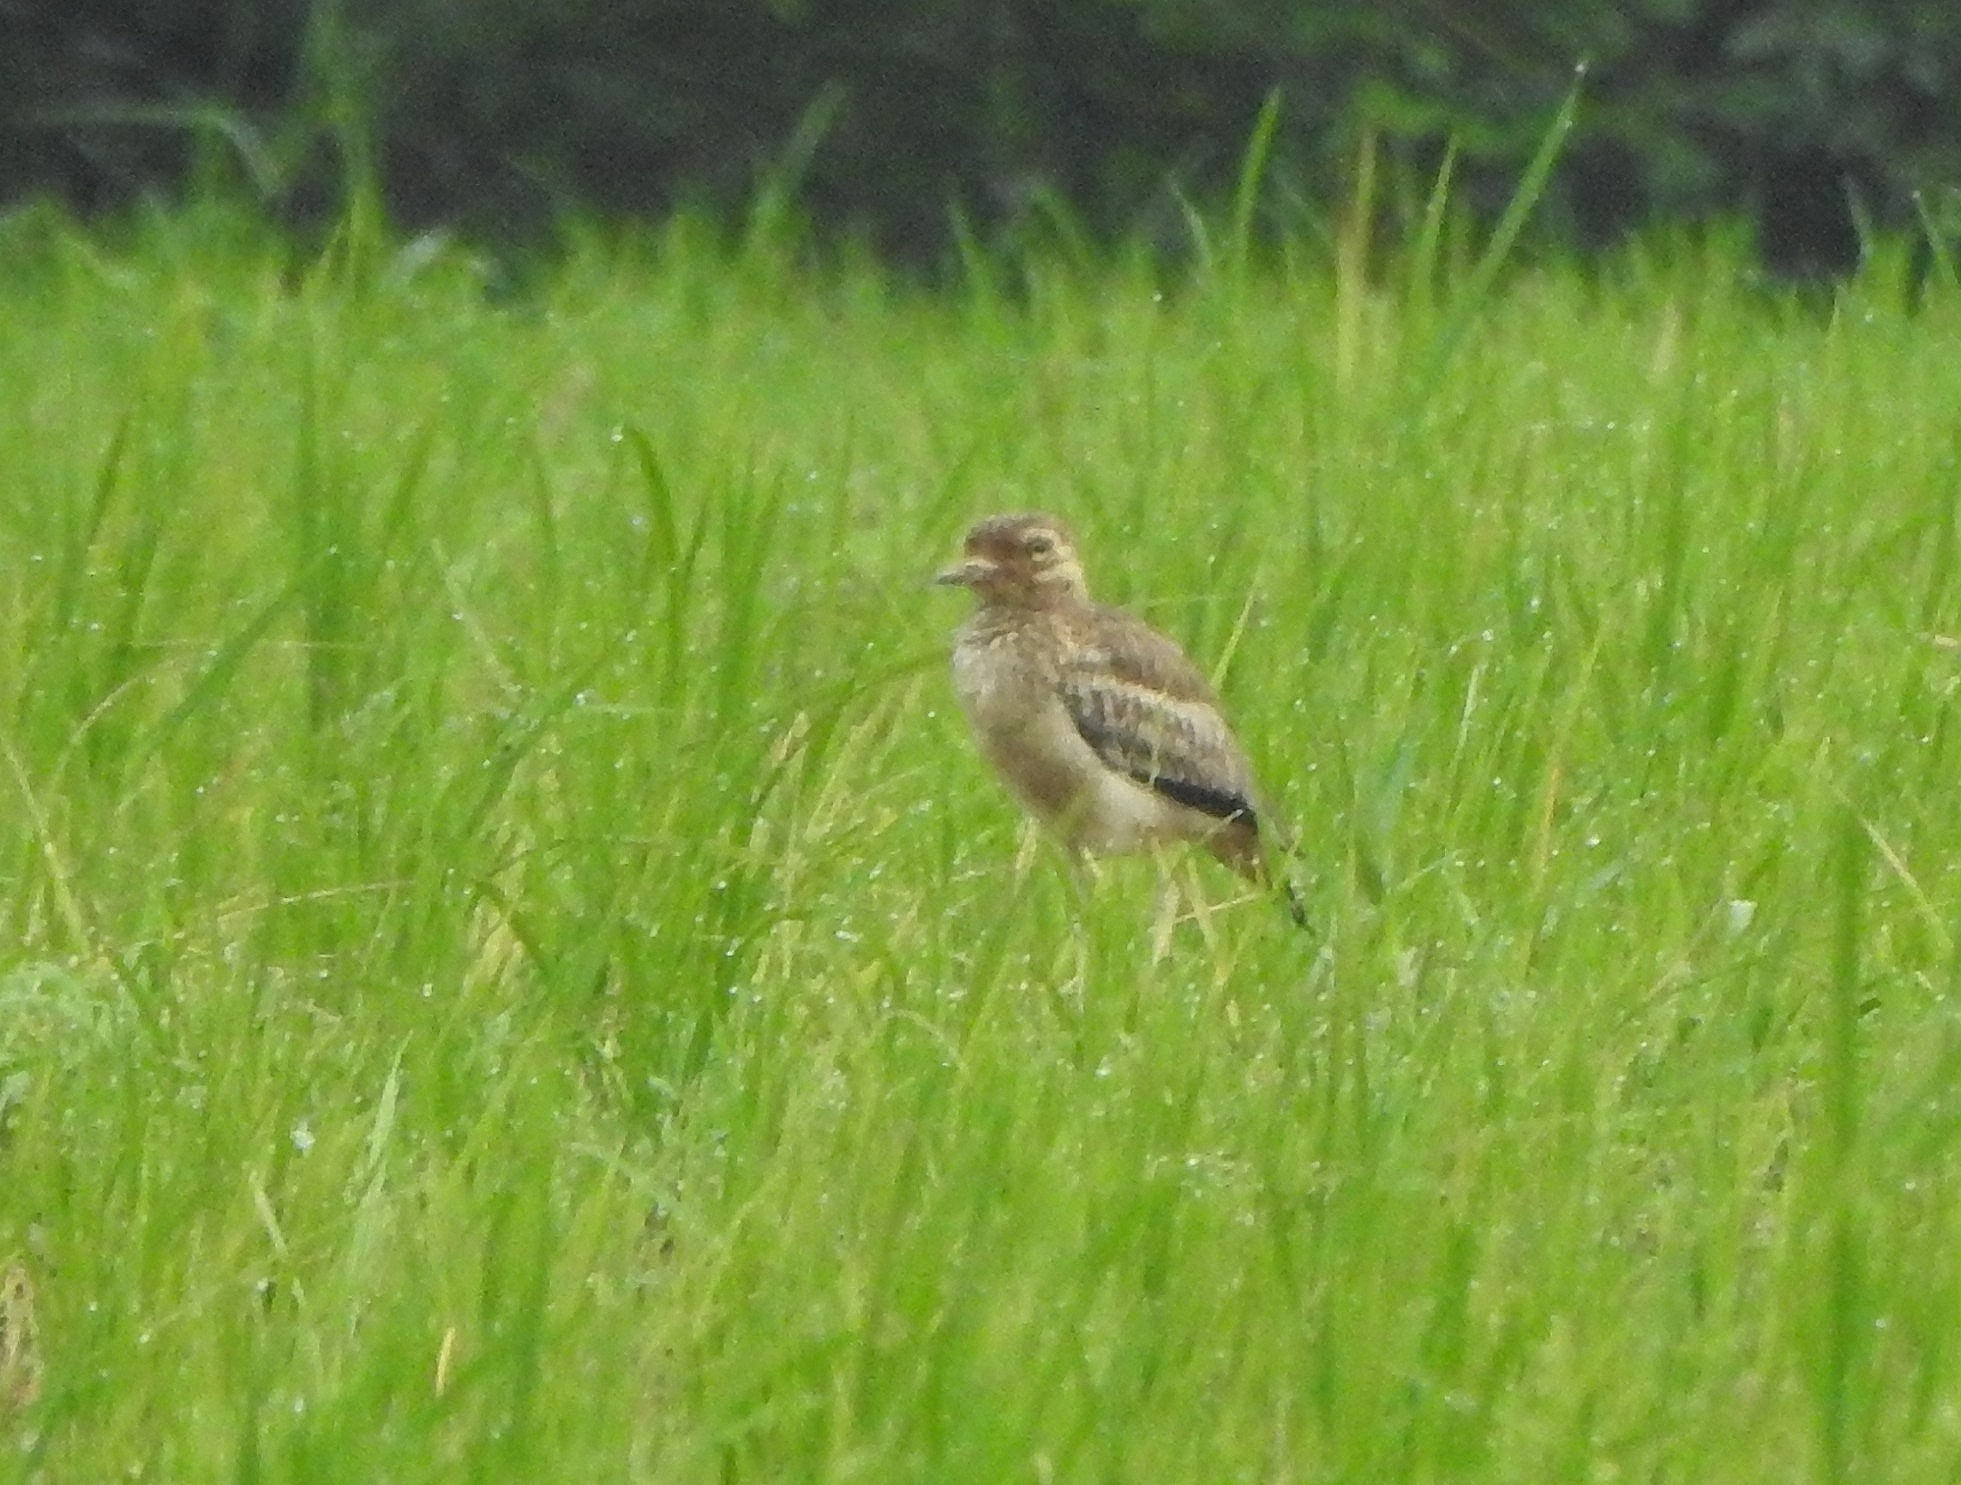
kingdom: Animalia
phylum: Chordata
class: Aves
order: Charadriiformes
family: Burhinidae
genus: Burhinus
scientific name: Burhinus indicus
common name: Indian thick-knee
